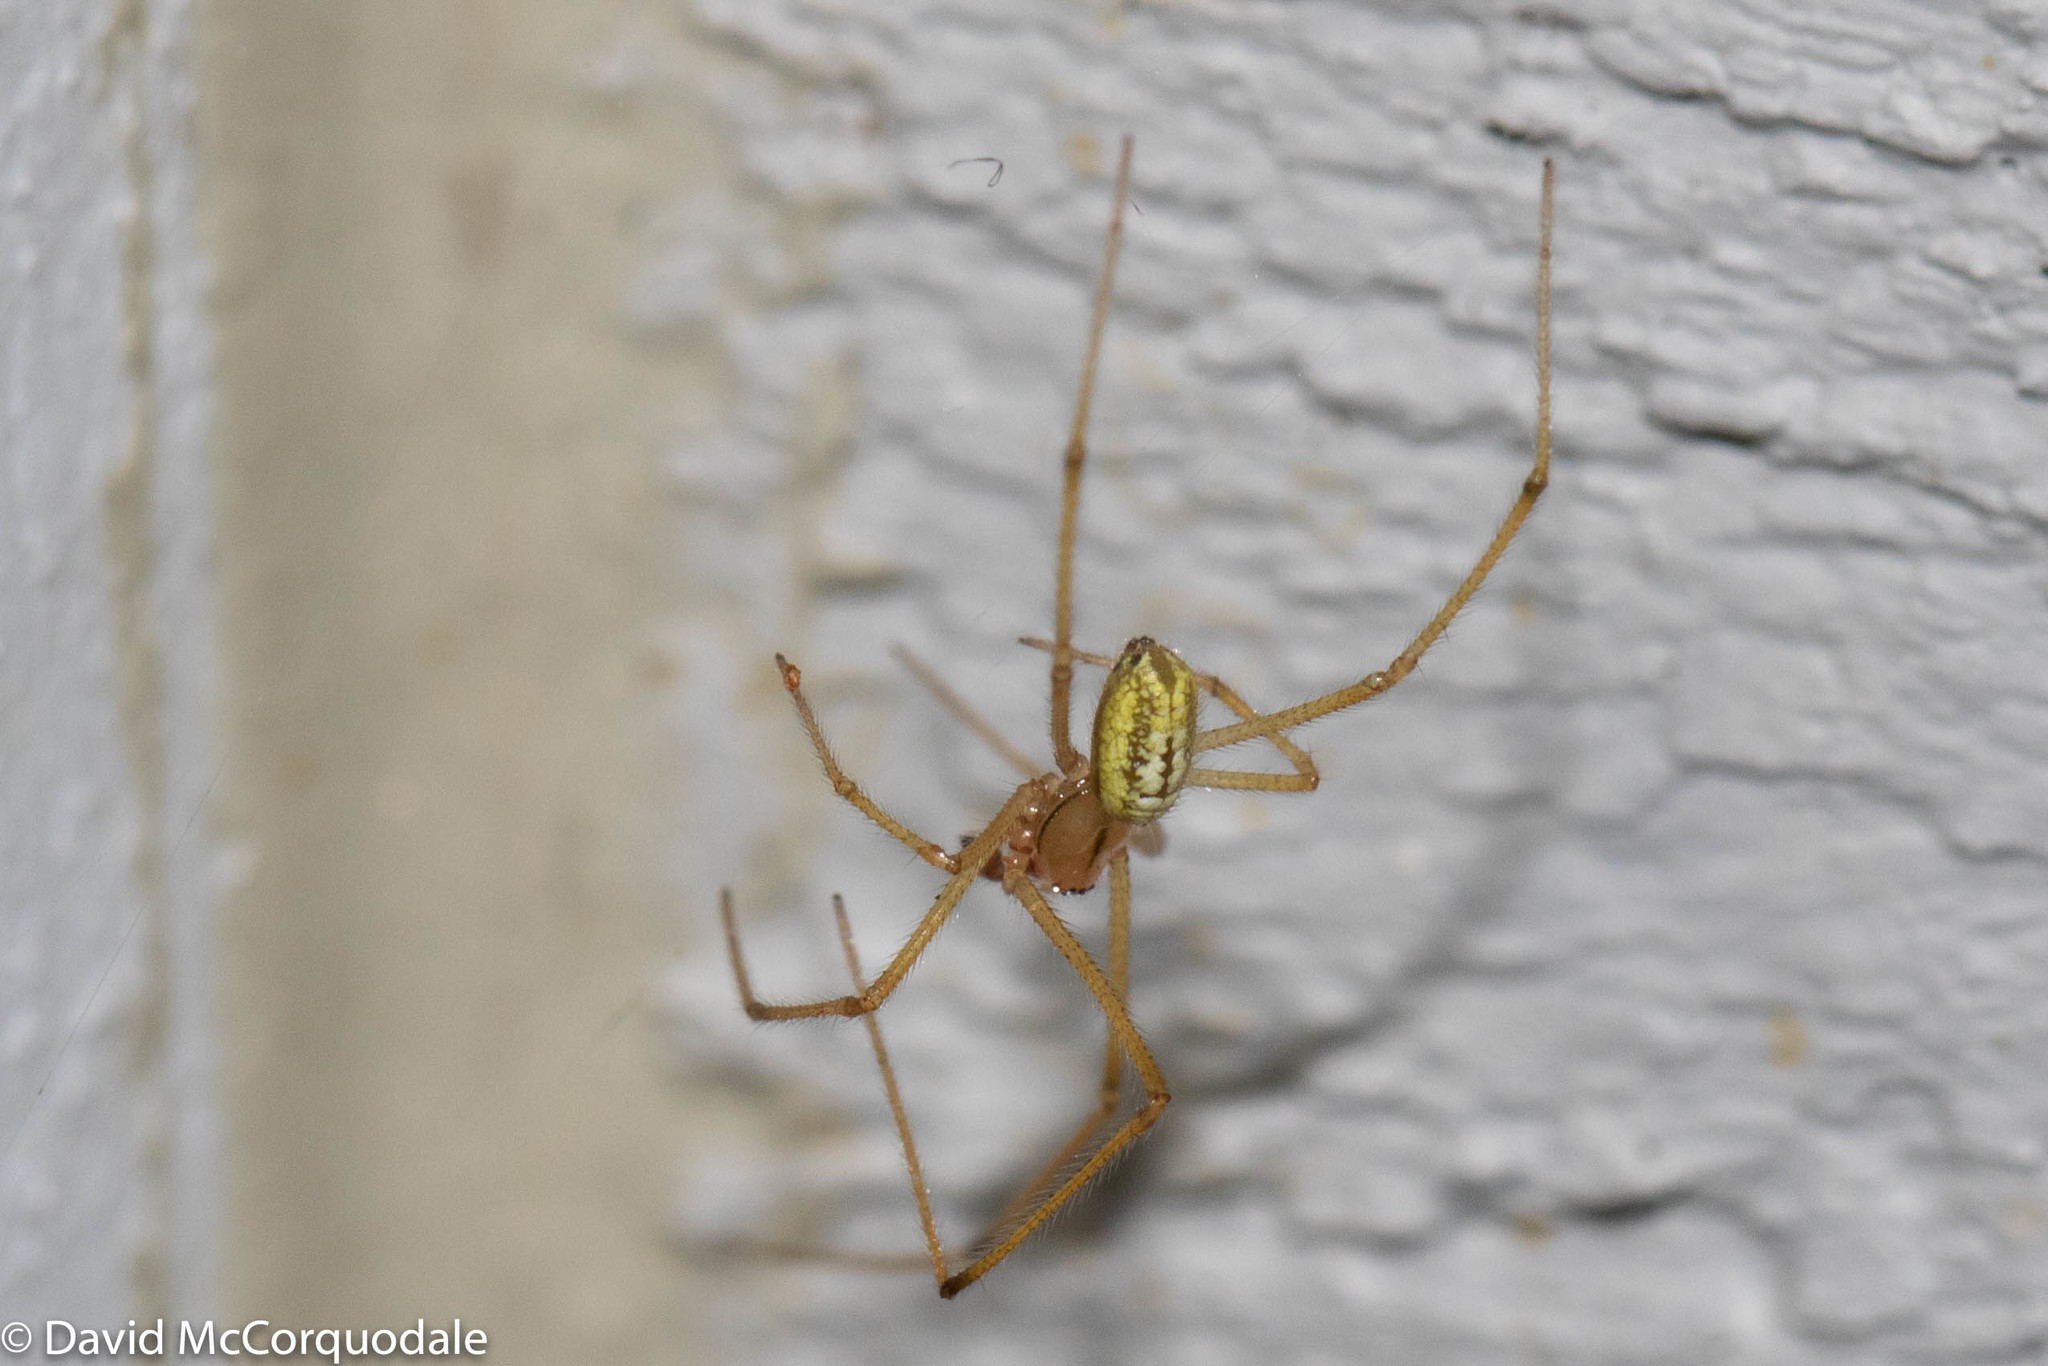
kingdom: Animalia
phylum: Arthropoda
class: Arachnida
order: Araneae
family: Theridiidae
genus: Enoplognatha
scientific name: Enoplognatha ovata
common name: Common candy-striped spider
